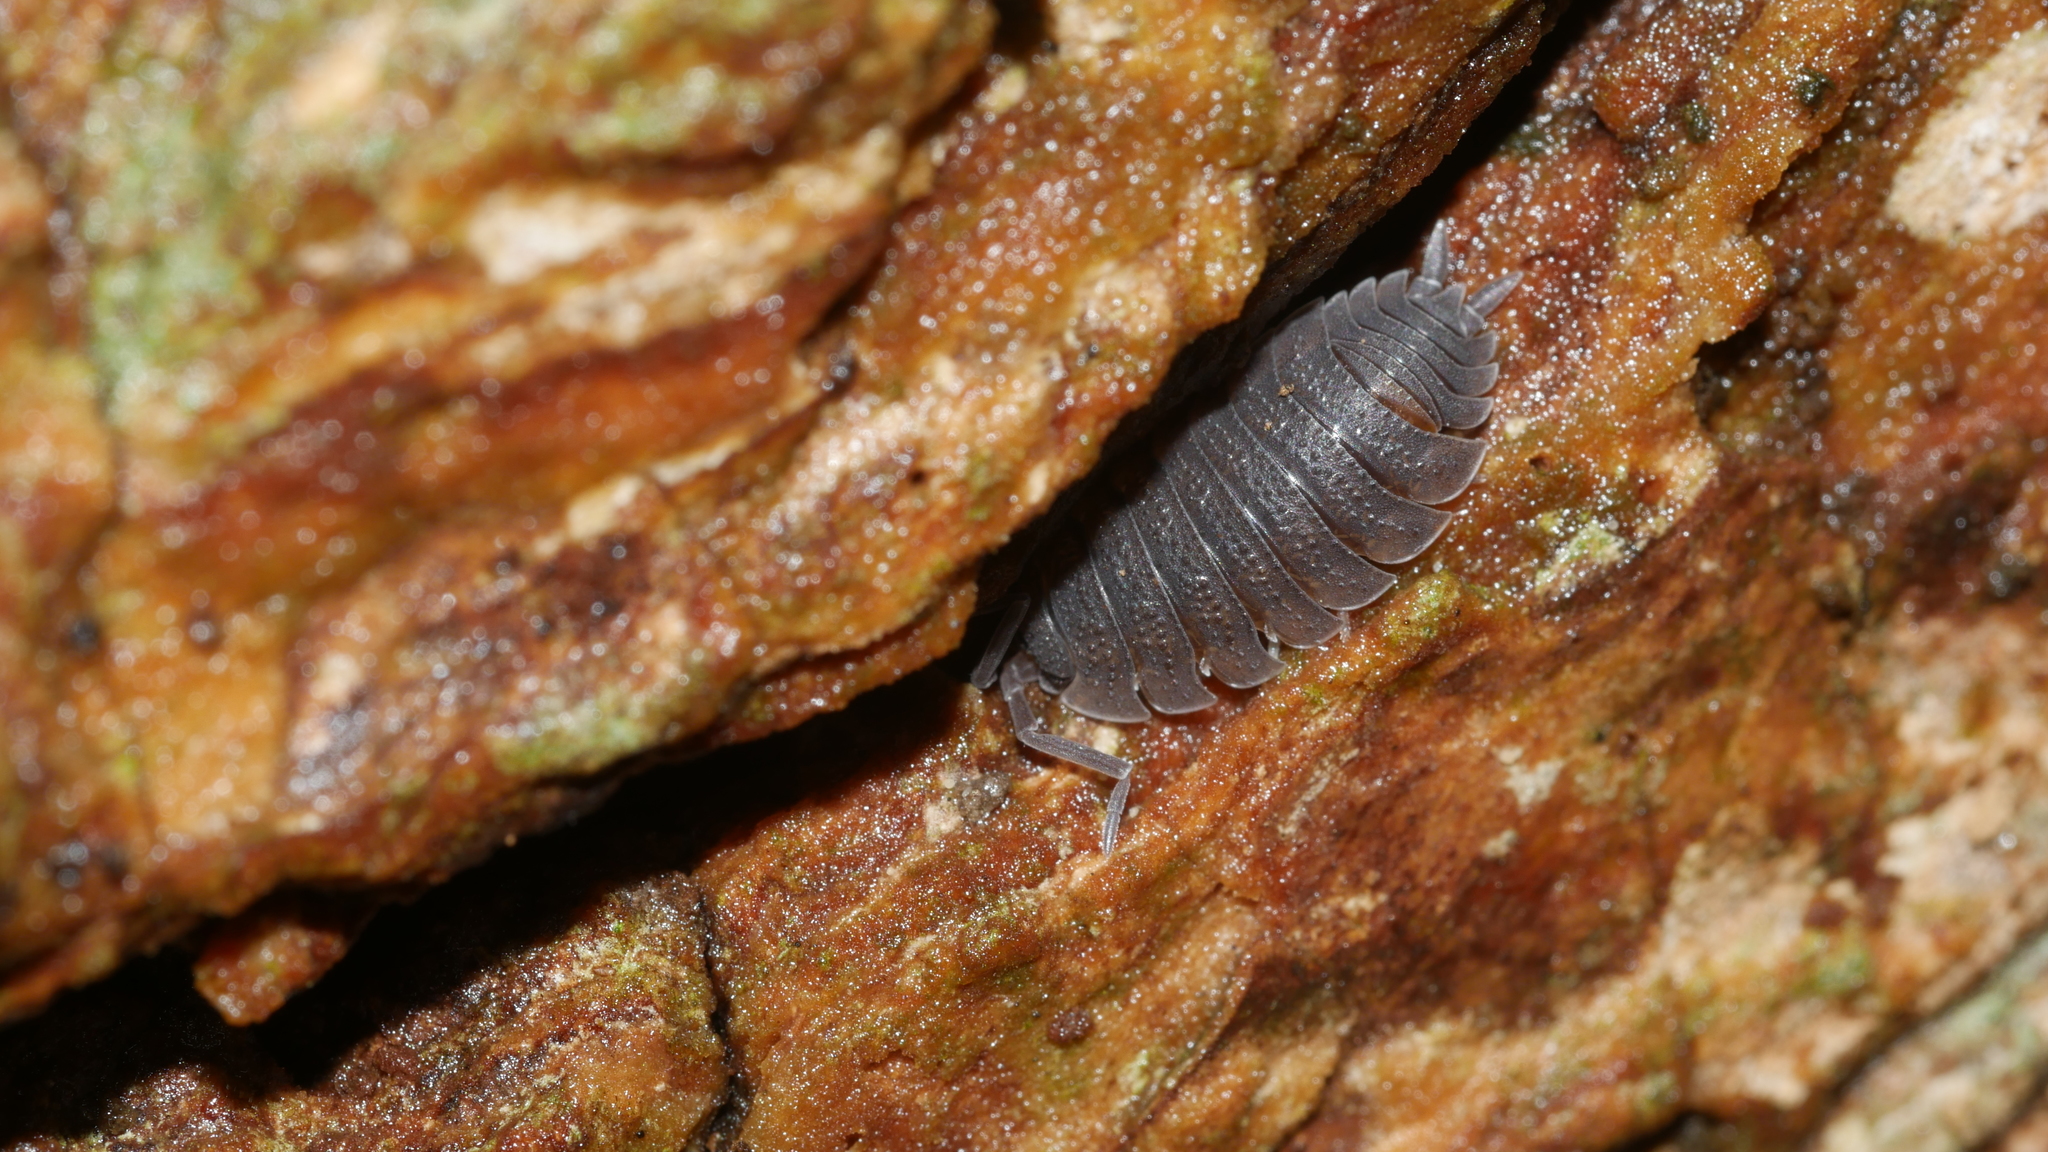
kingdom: Animalia
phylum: Arthropoda
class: Malacostraca
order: Isopoda
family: Porcellionidae
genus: Porcellio
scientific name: Porcellio scaber
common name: Common rough woodlouse
